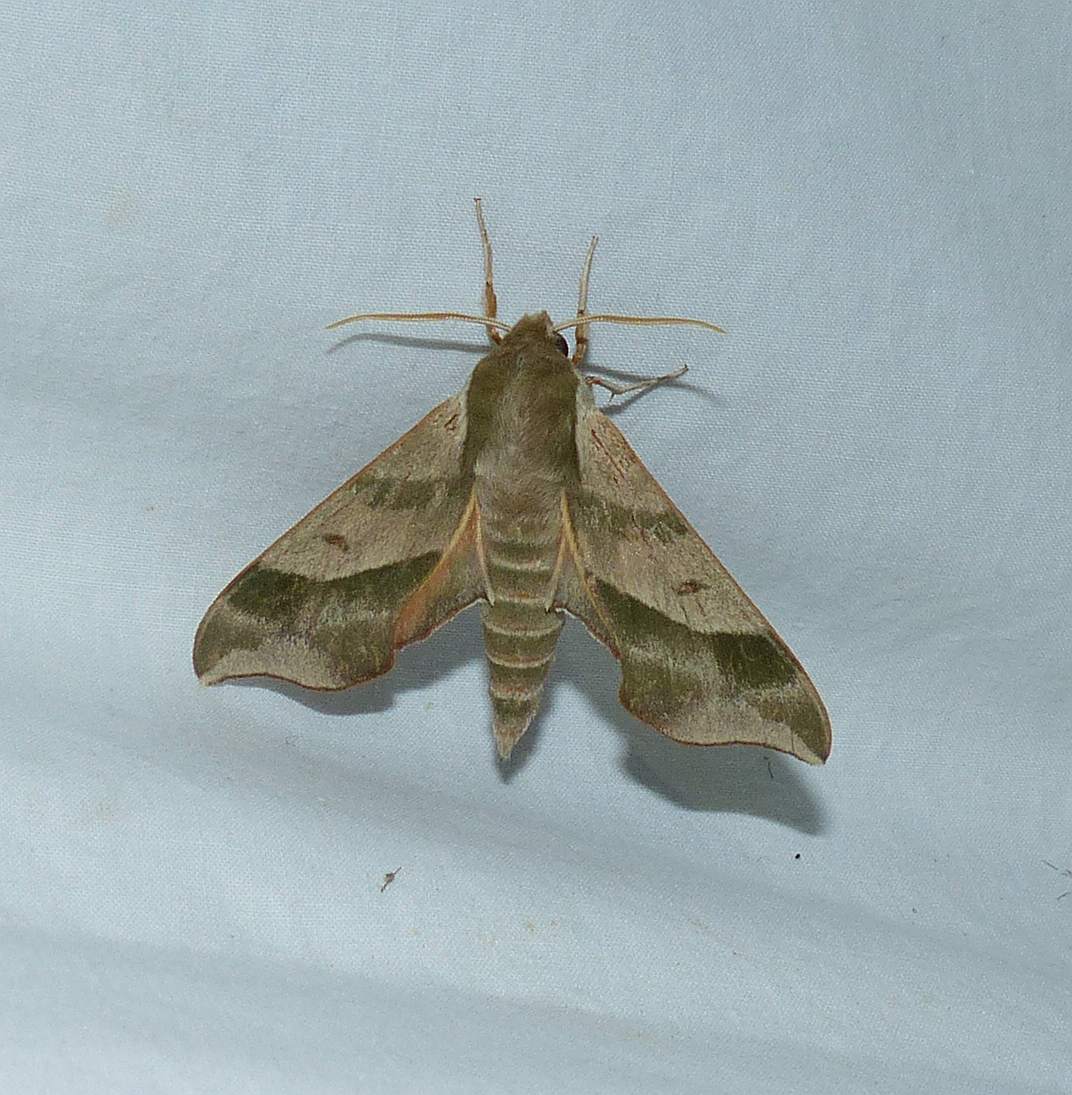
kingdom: Animalia
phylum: Arthropoda
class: Insecta
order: Lepidoptera
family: Sphingidae
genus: Darapsa
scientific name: Darapsa myron
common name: Hog sphinx
